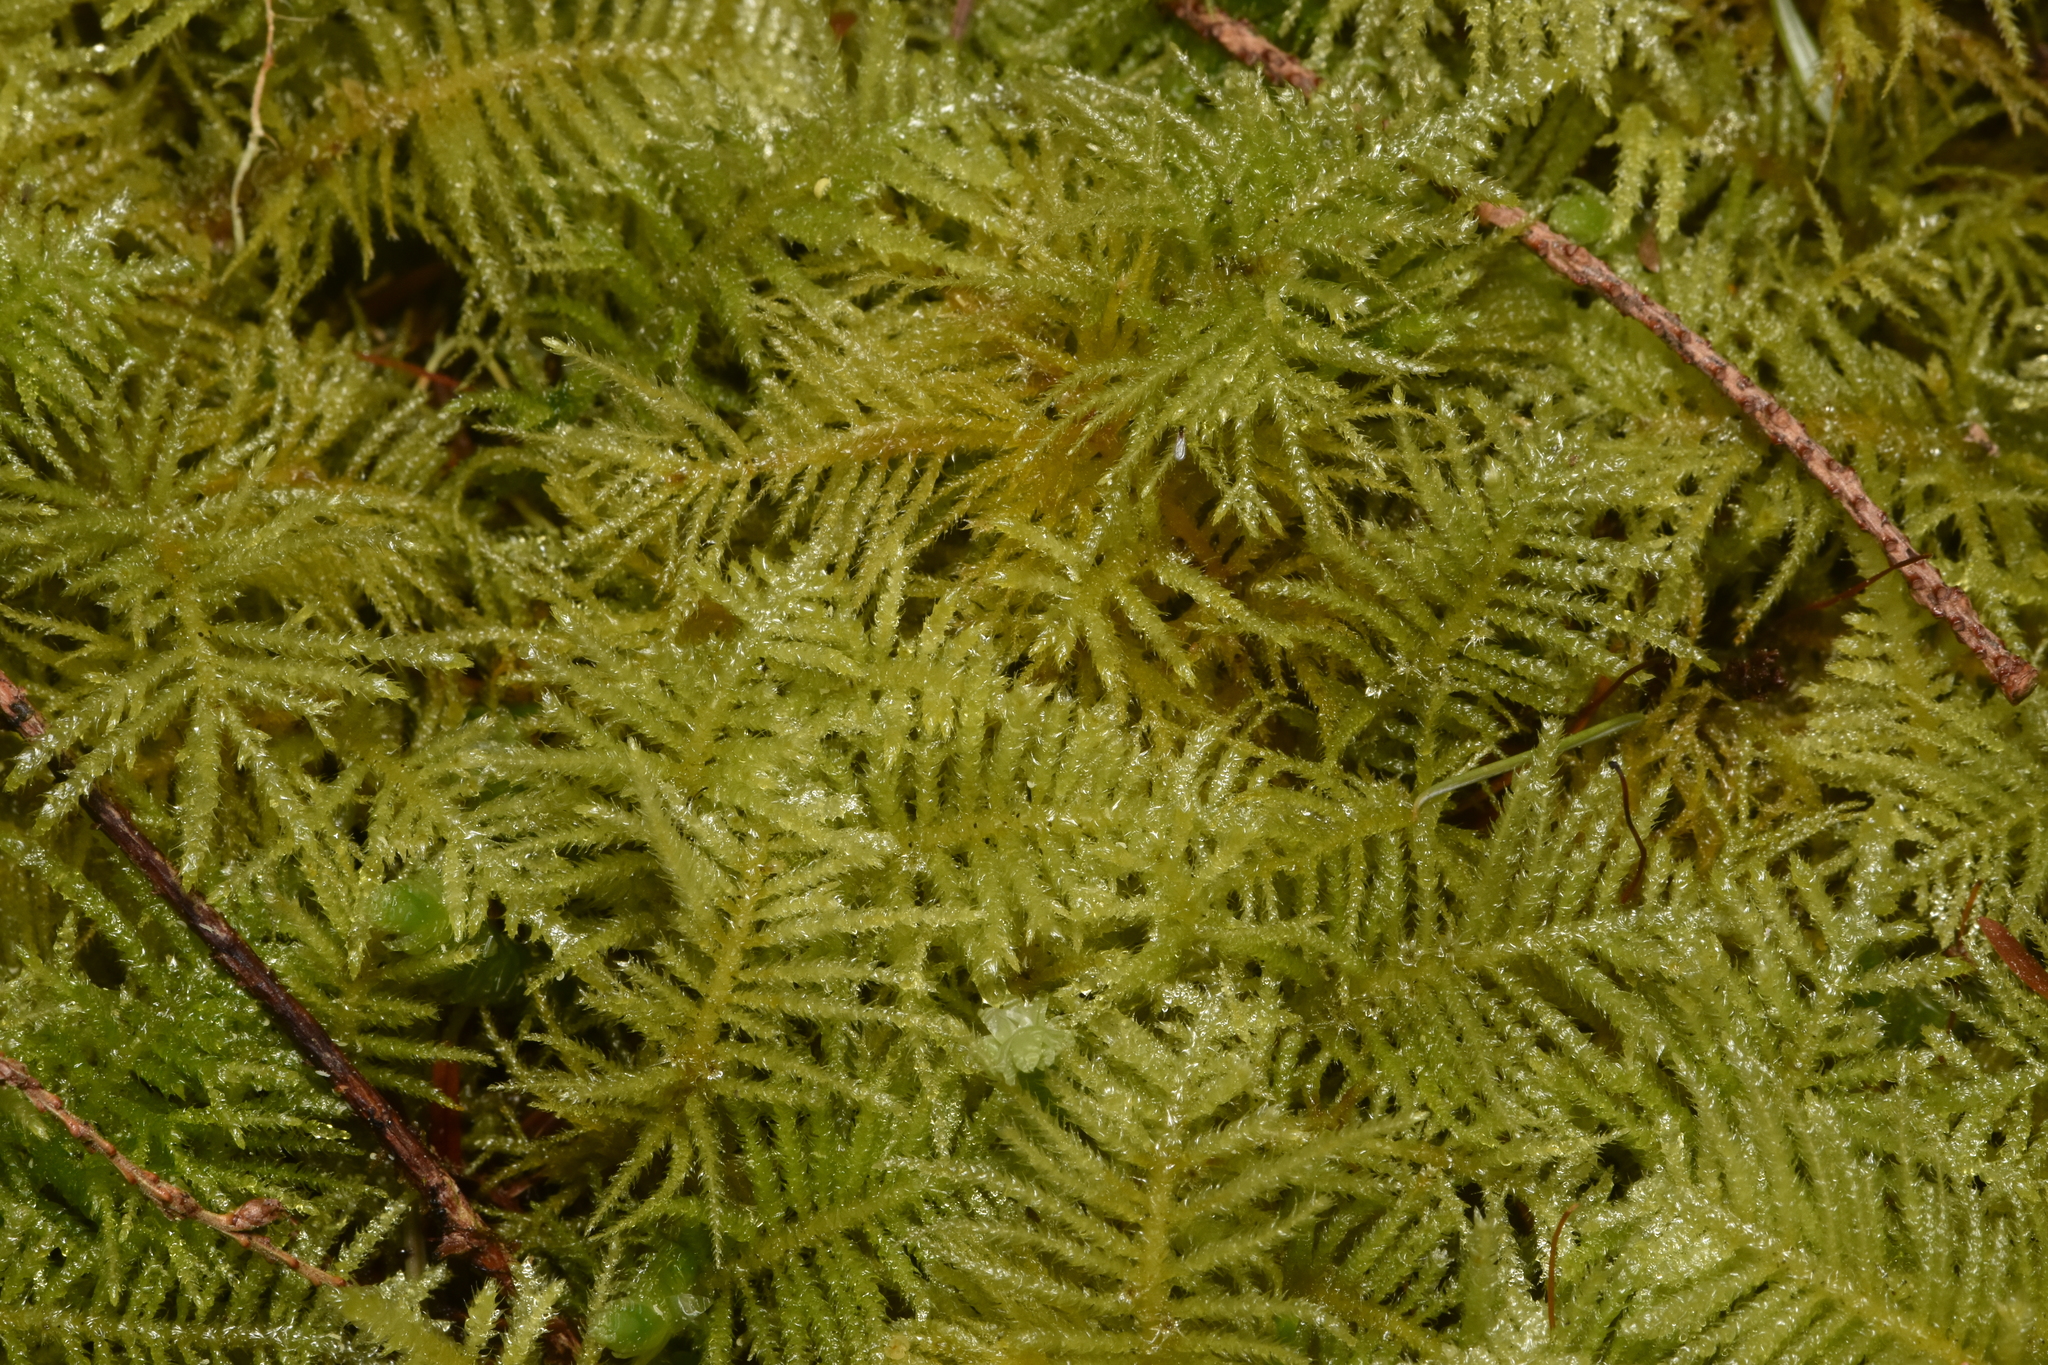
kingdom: Plantae
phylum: Bryophyta
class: Bryopsida
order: Hypnales
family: Brachytheciaceae
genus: Kindbergia
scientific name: Kindbergia oregana
